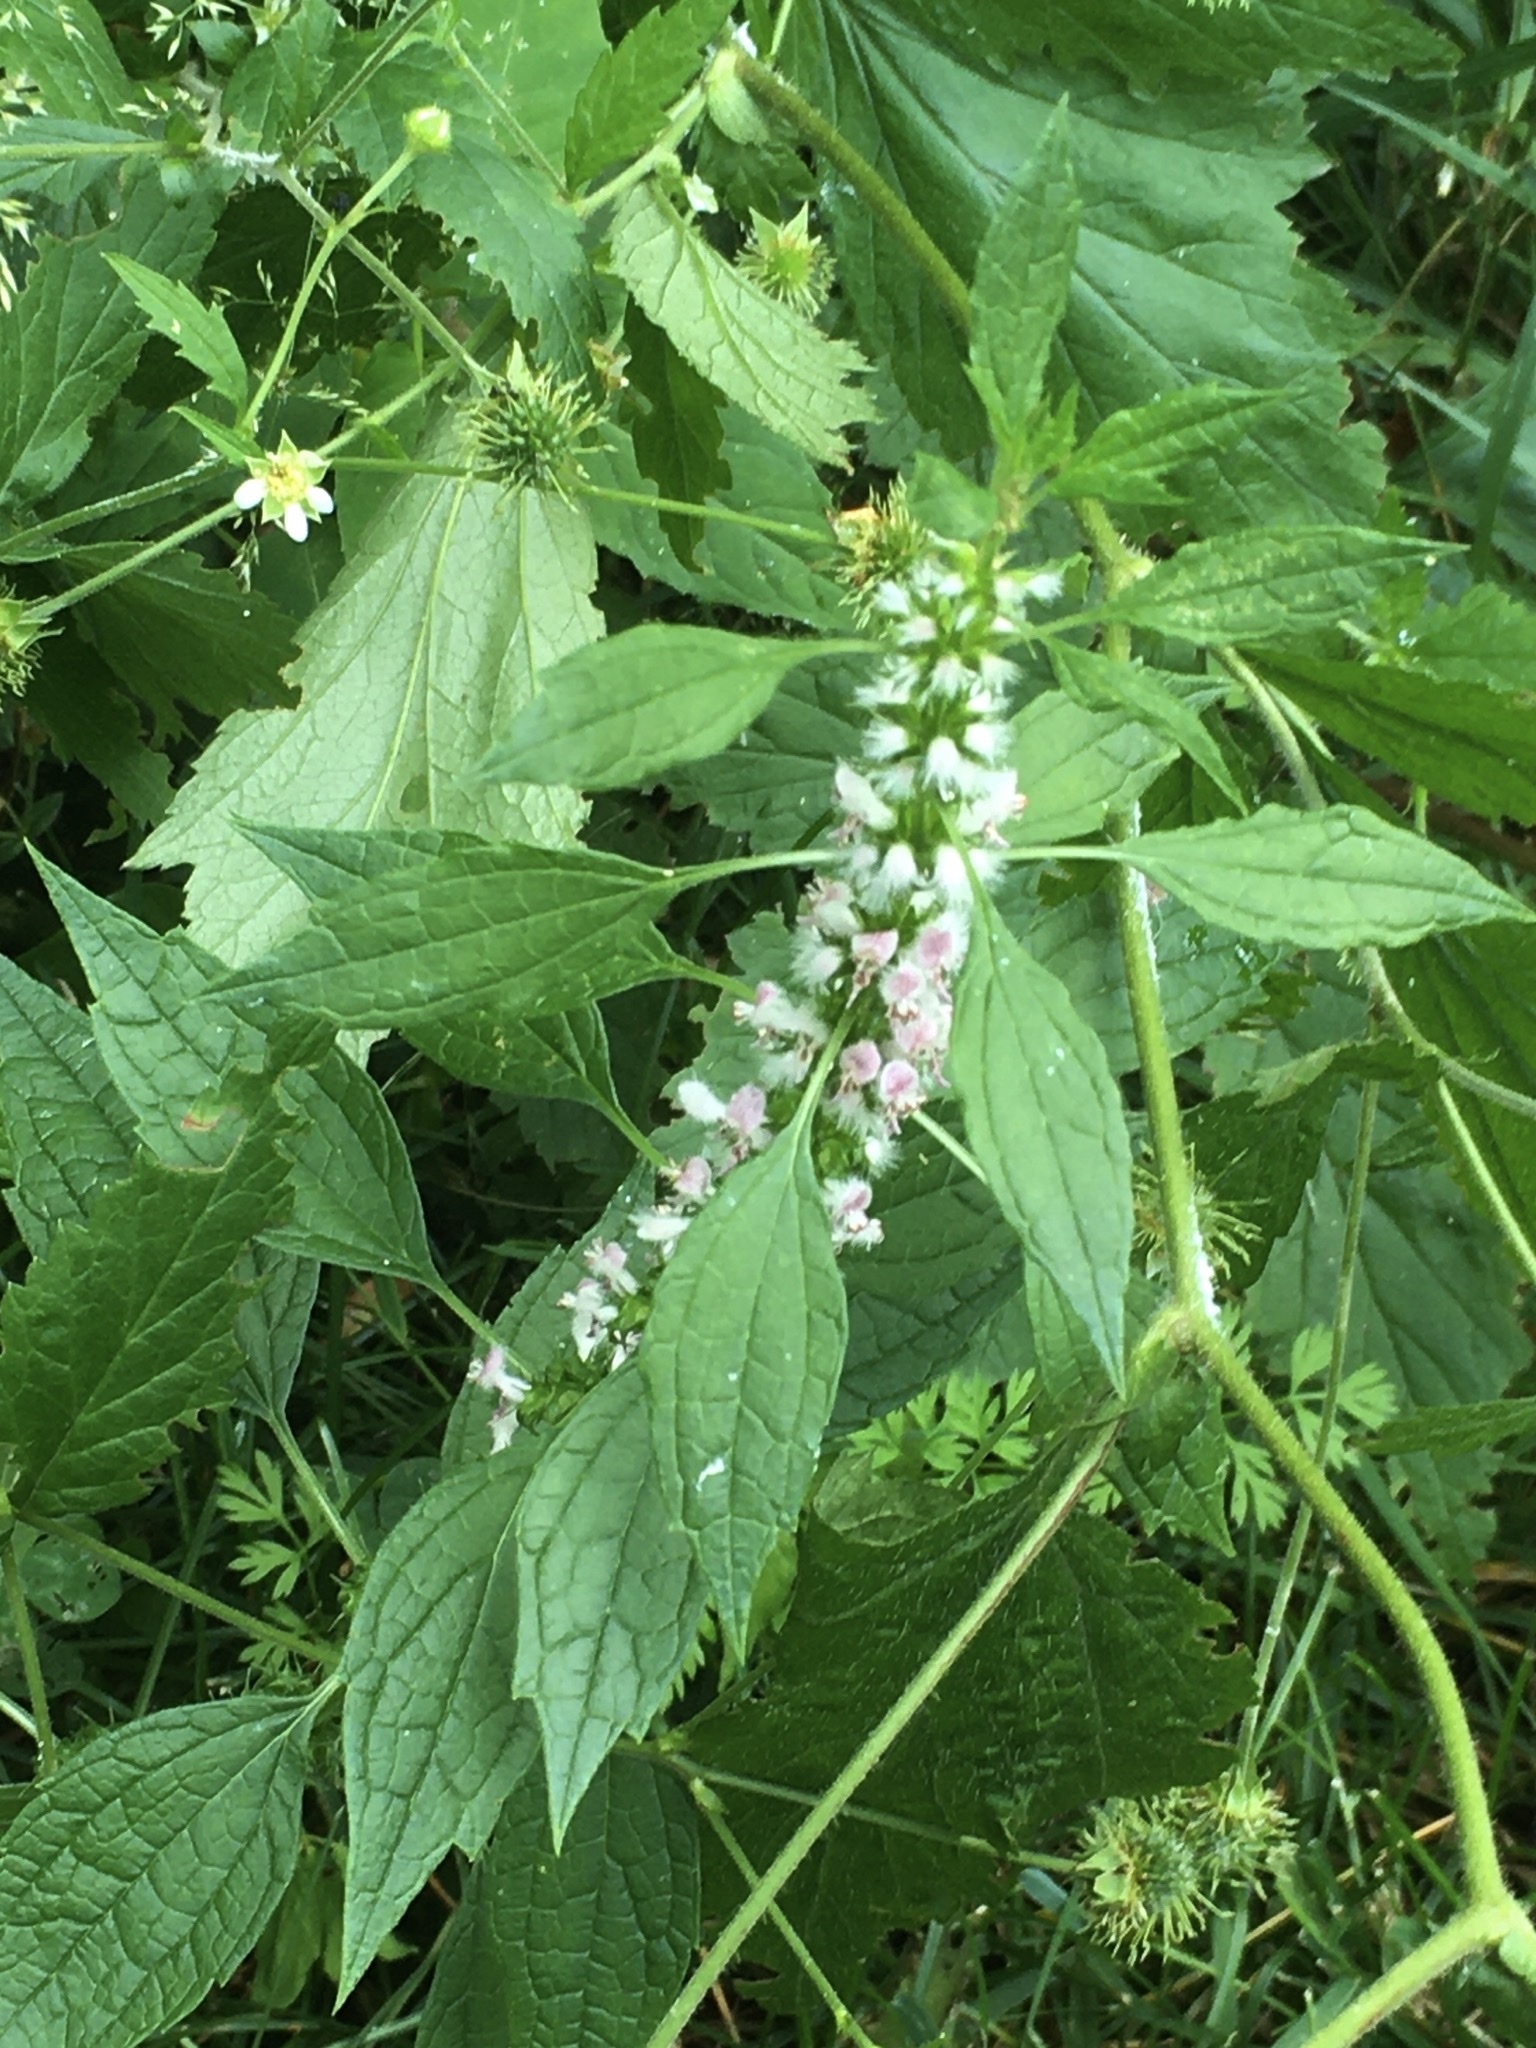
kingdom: Plantae
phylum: Tracheophyta
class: Magnoliopsida
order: Lamiales
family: Lamiaceae
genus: Leonurus
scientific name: Leonurus cardiaca
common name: Motherwort
